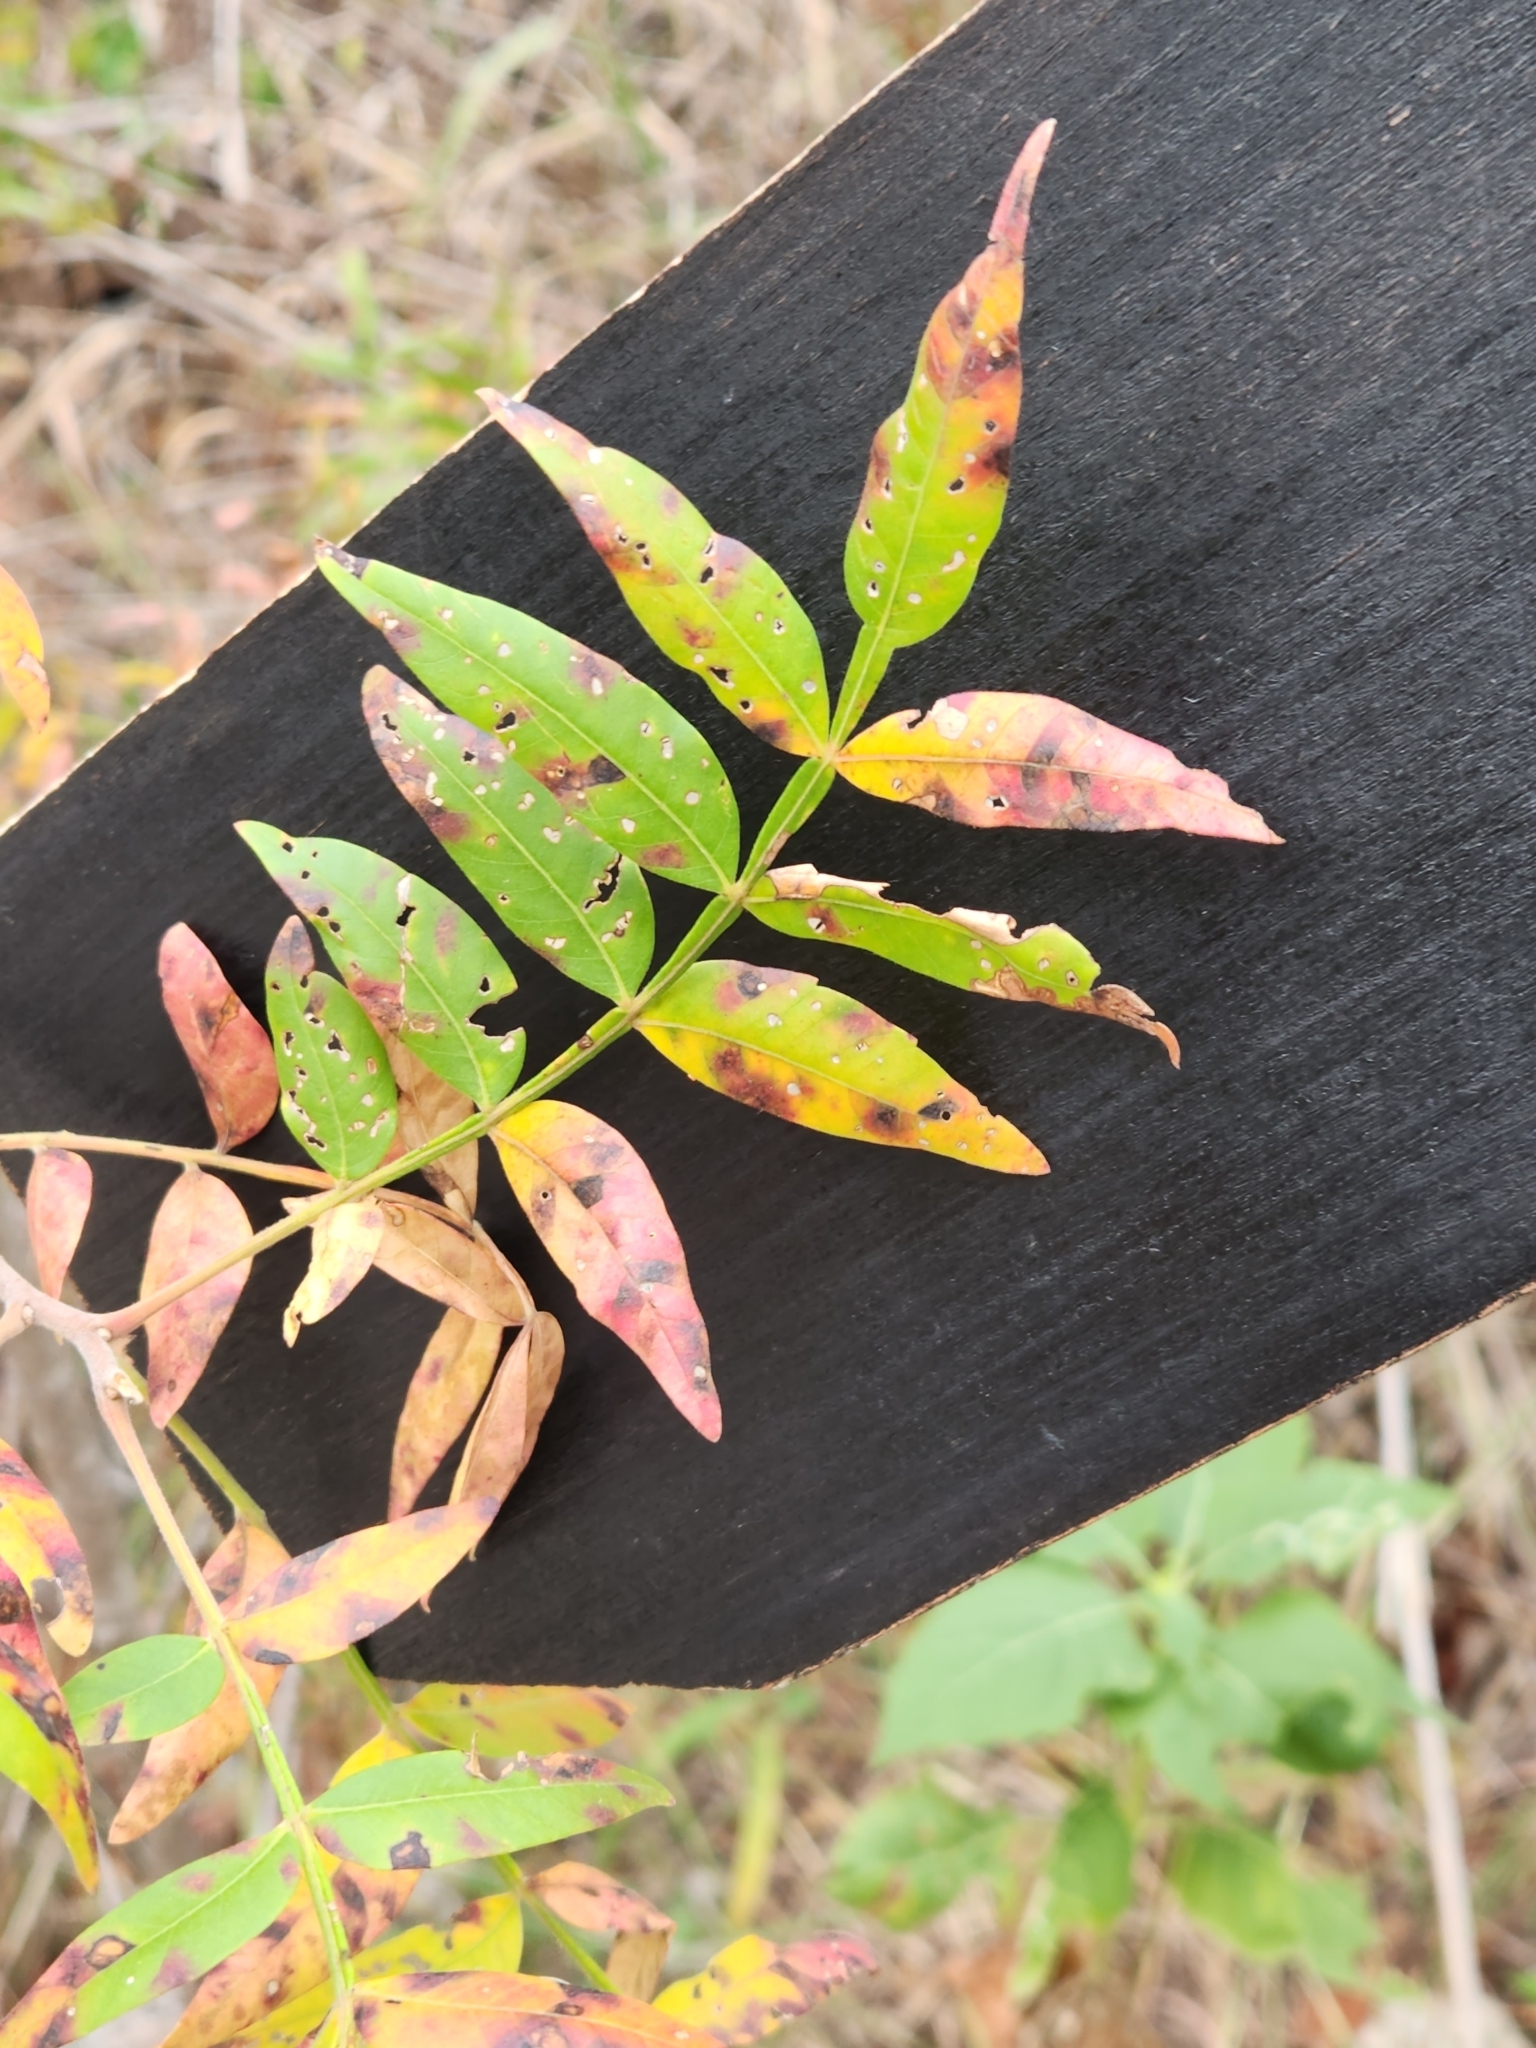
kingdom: Plantae
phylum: Tracheophyta
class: Magnoliopsida
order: Sapindales
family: Anacardiaceae
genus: Rhus
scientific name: Rhus lanceolata
